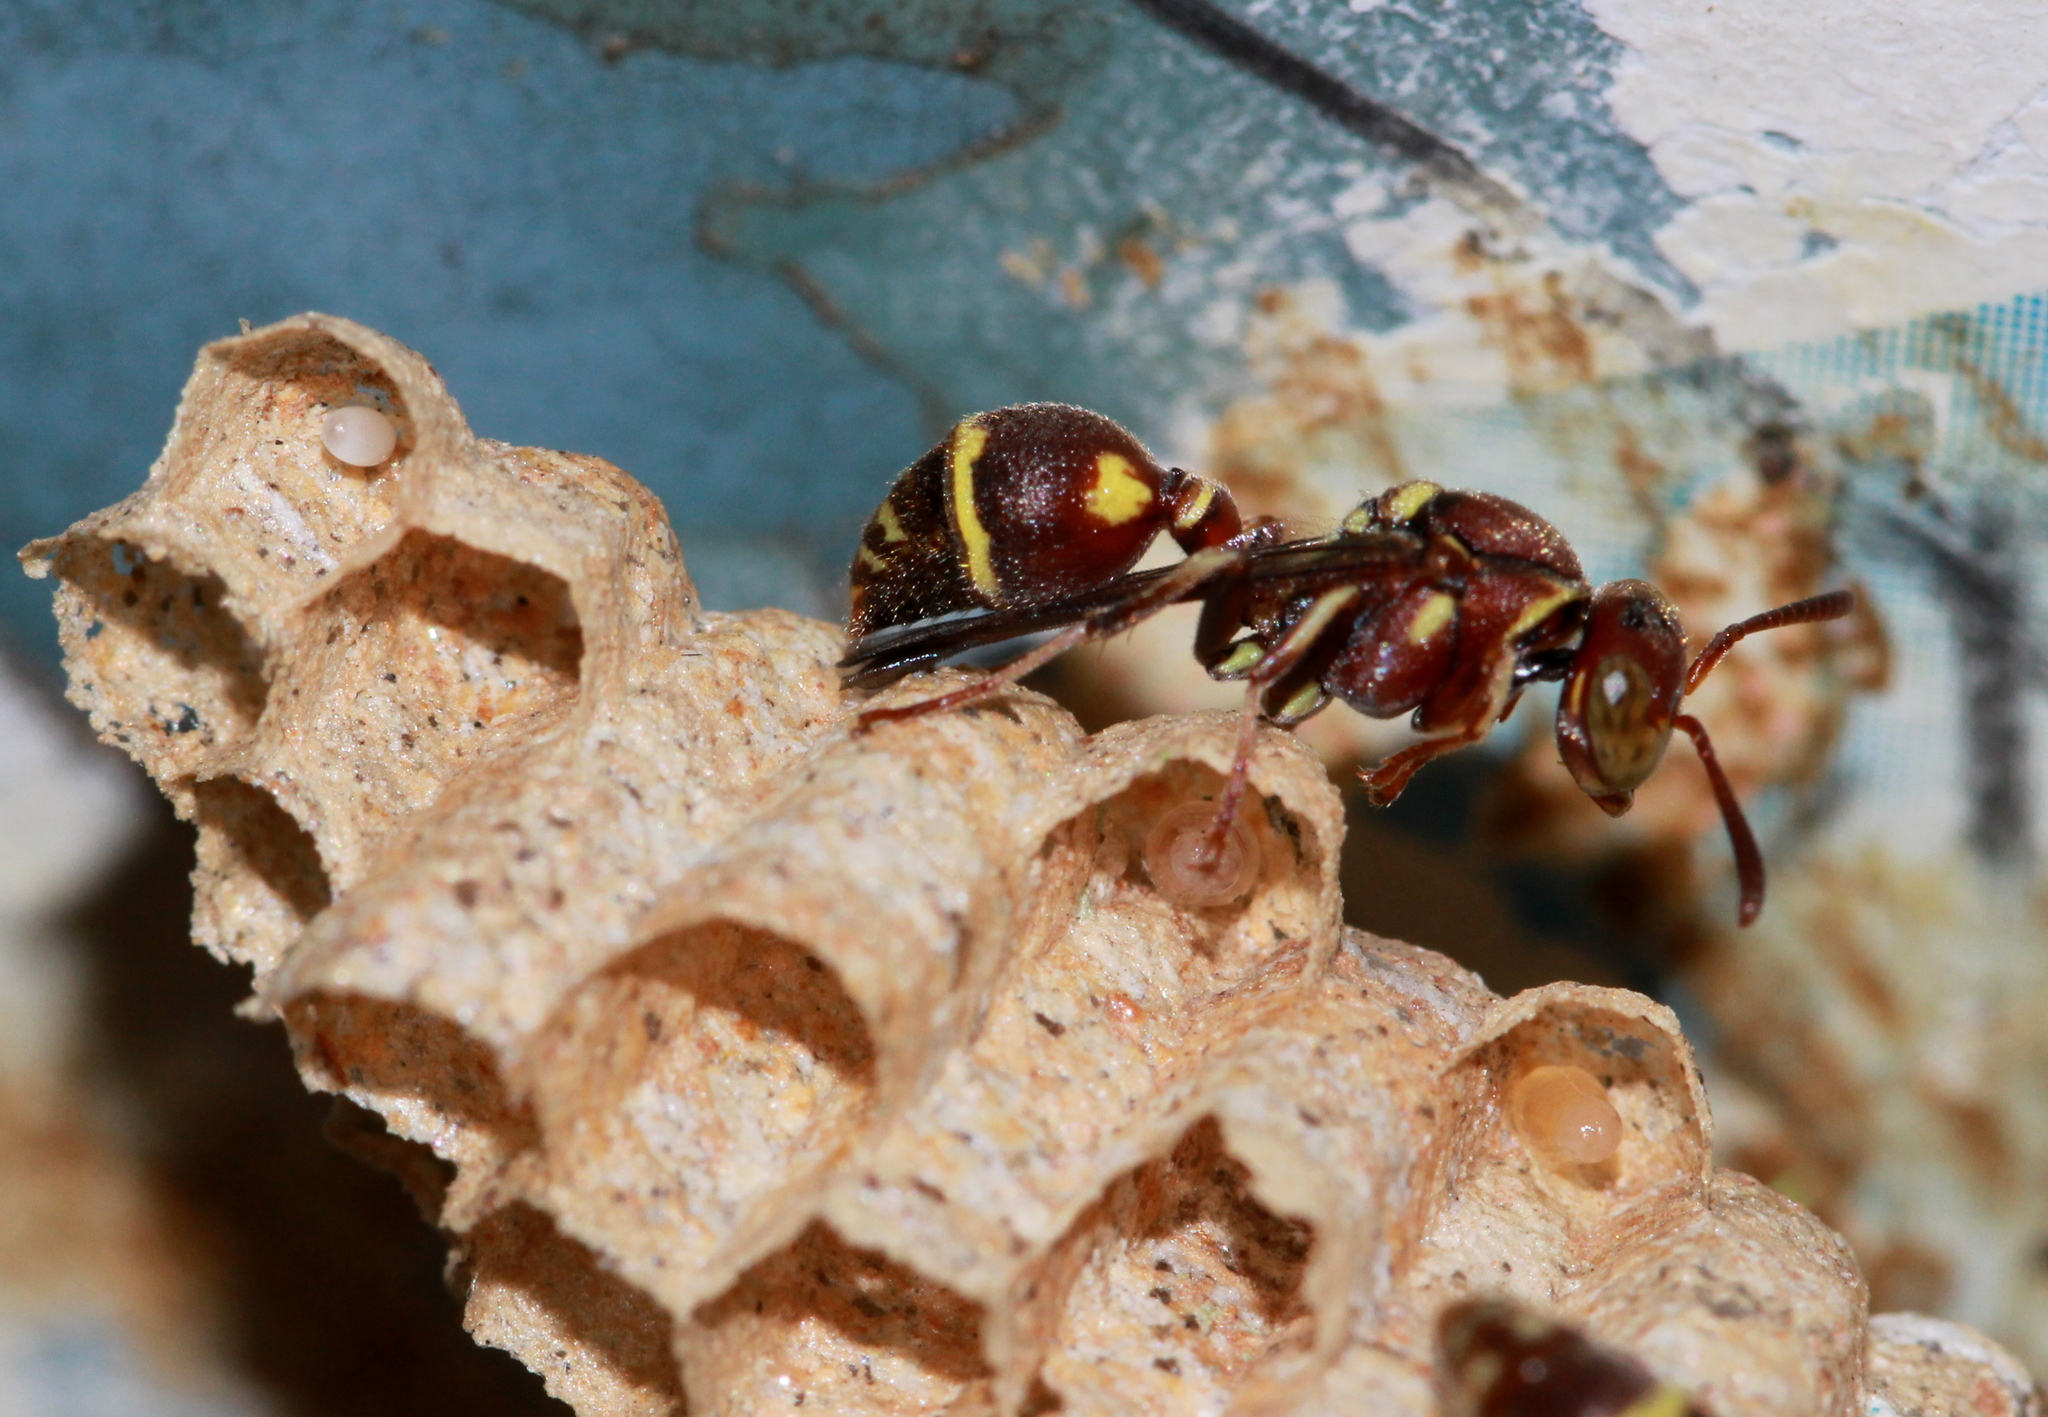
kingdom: Animalia
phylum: Arthropoda
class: Insecta
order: Hymenoptera
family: Vespidae
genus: Ropalidia
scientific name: Ropalidia cyathiformis
